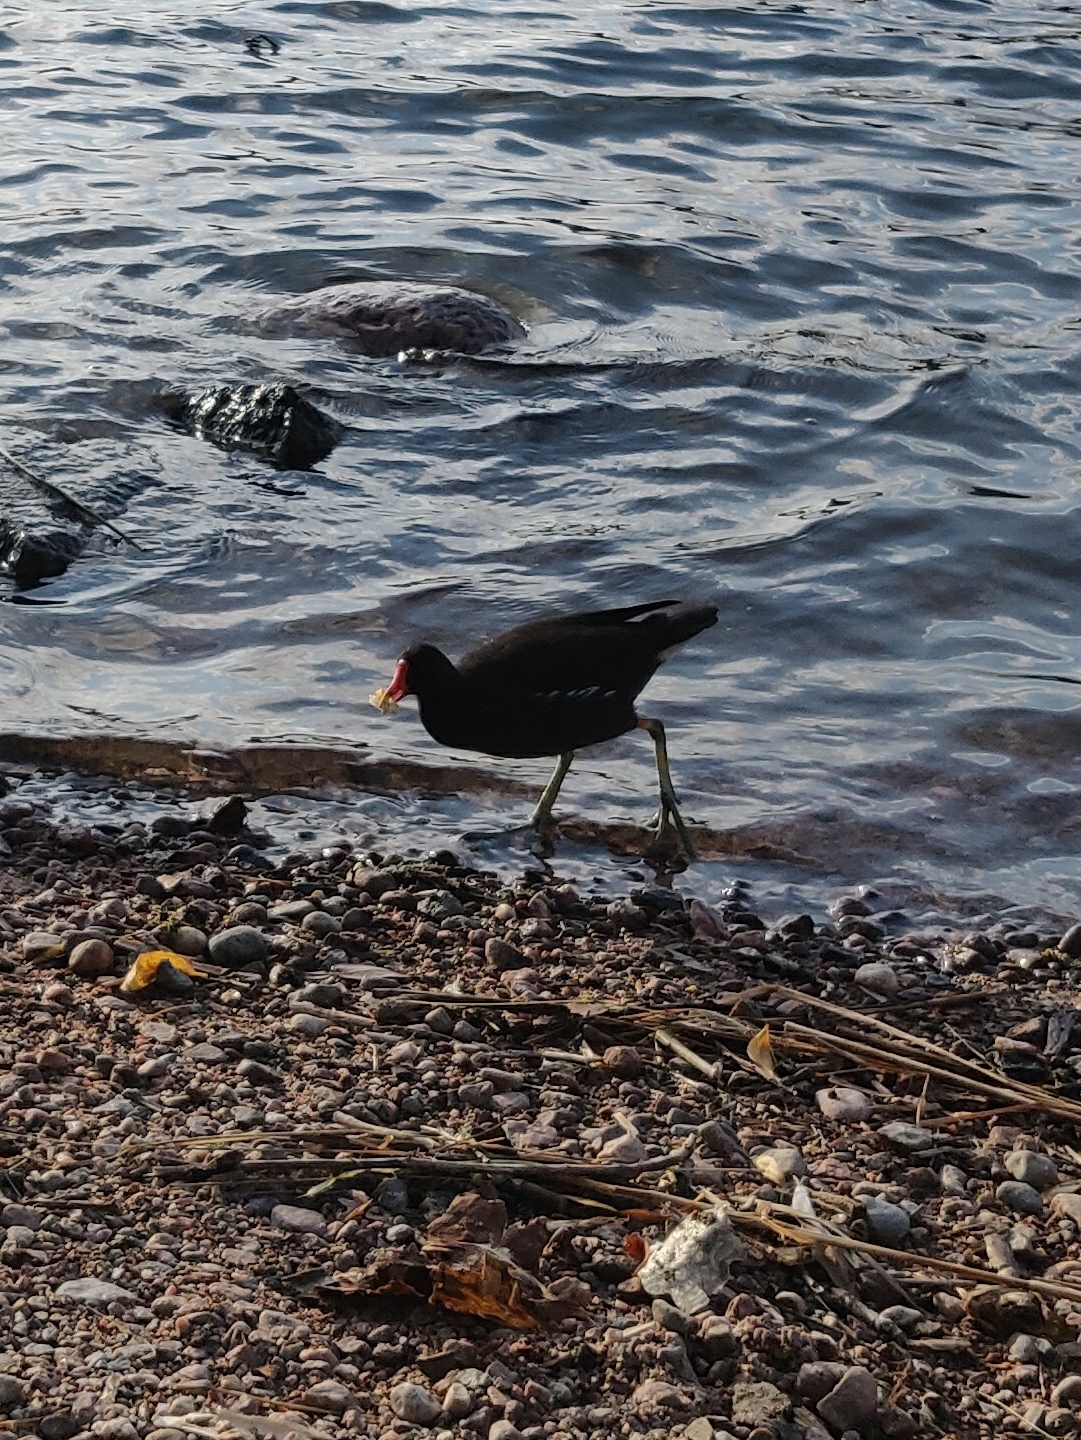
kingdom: Animalia
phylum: Chordata
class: Aves
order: Gruiformes
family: Rallidae
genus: Gallinula
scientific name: Gallinula chloropus
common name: Common moorhen
